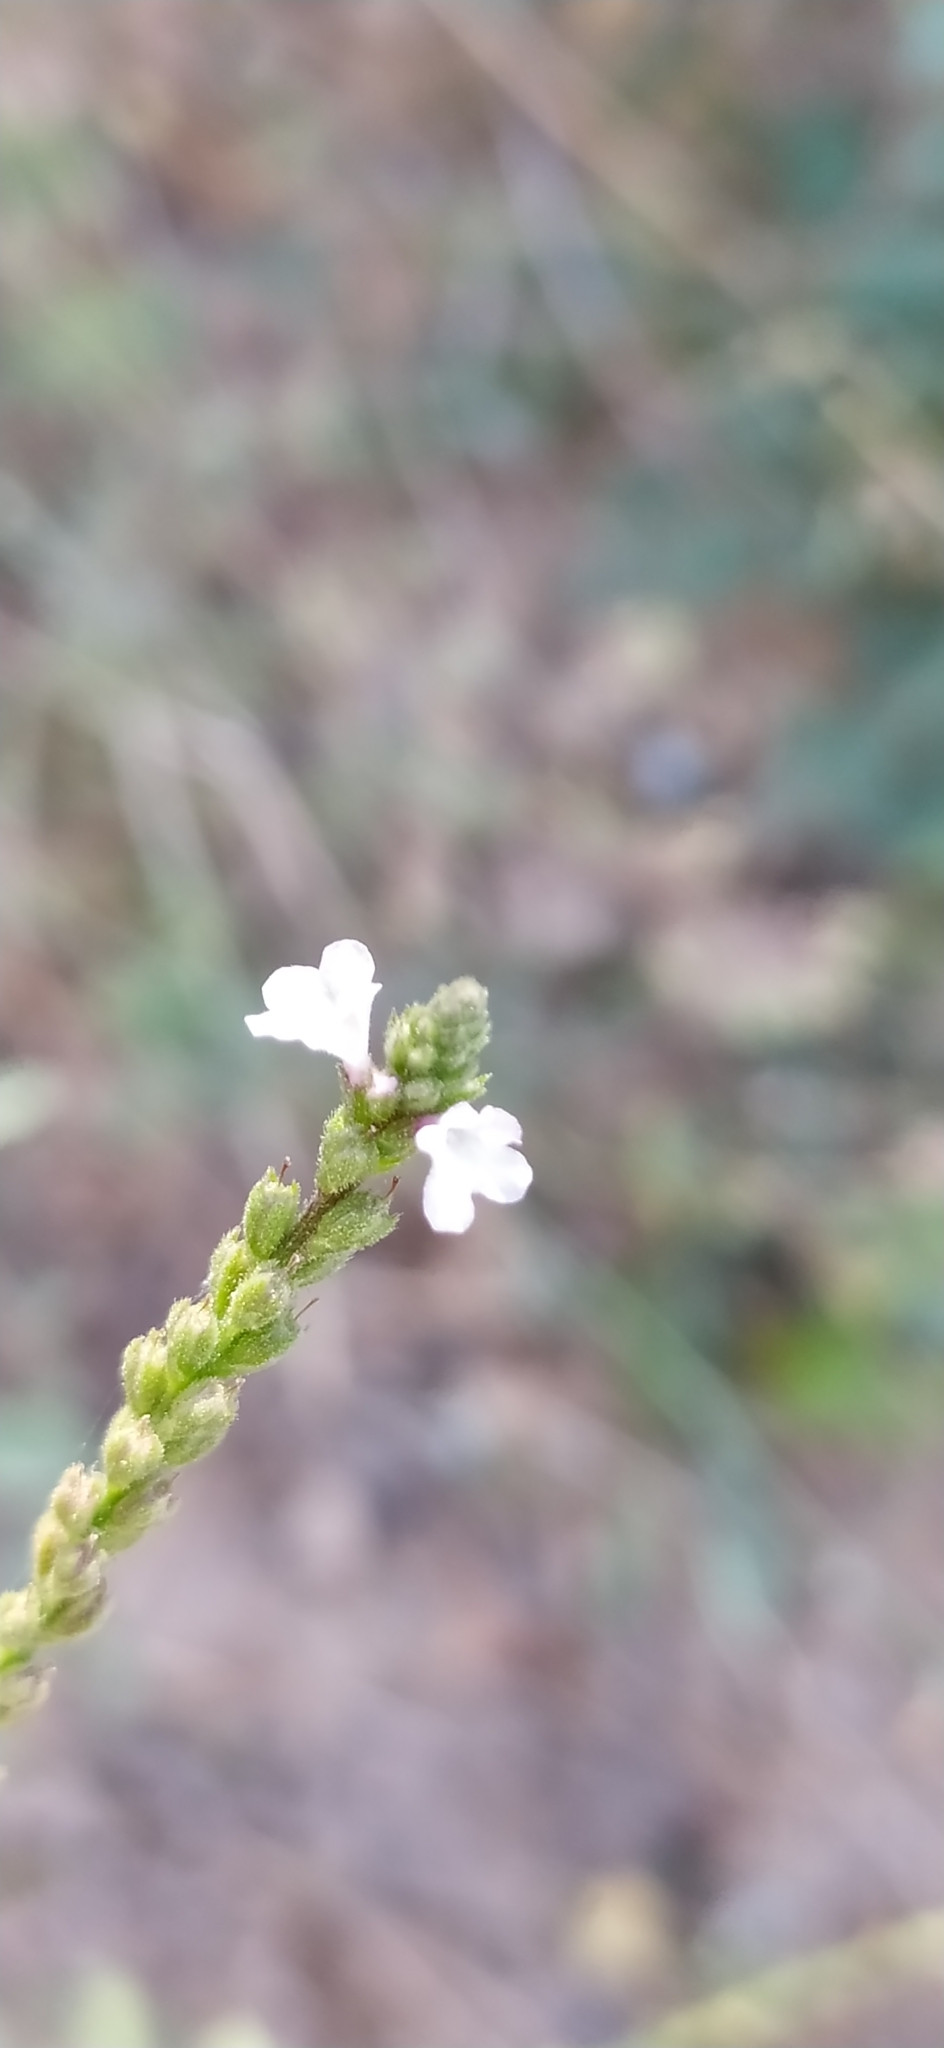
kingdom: Plantae
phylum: Tracheophyta
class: Magnoliopsida
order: Lamiales
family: Verbenaceae
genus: Verbena
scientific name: Verbena officinalis
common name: Vervain
